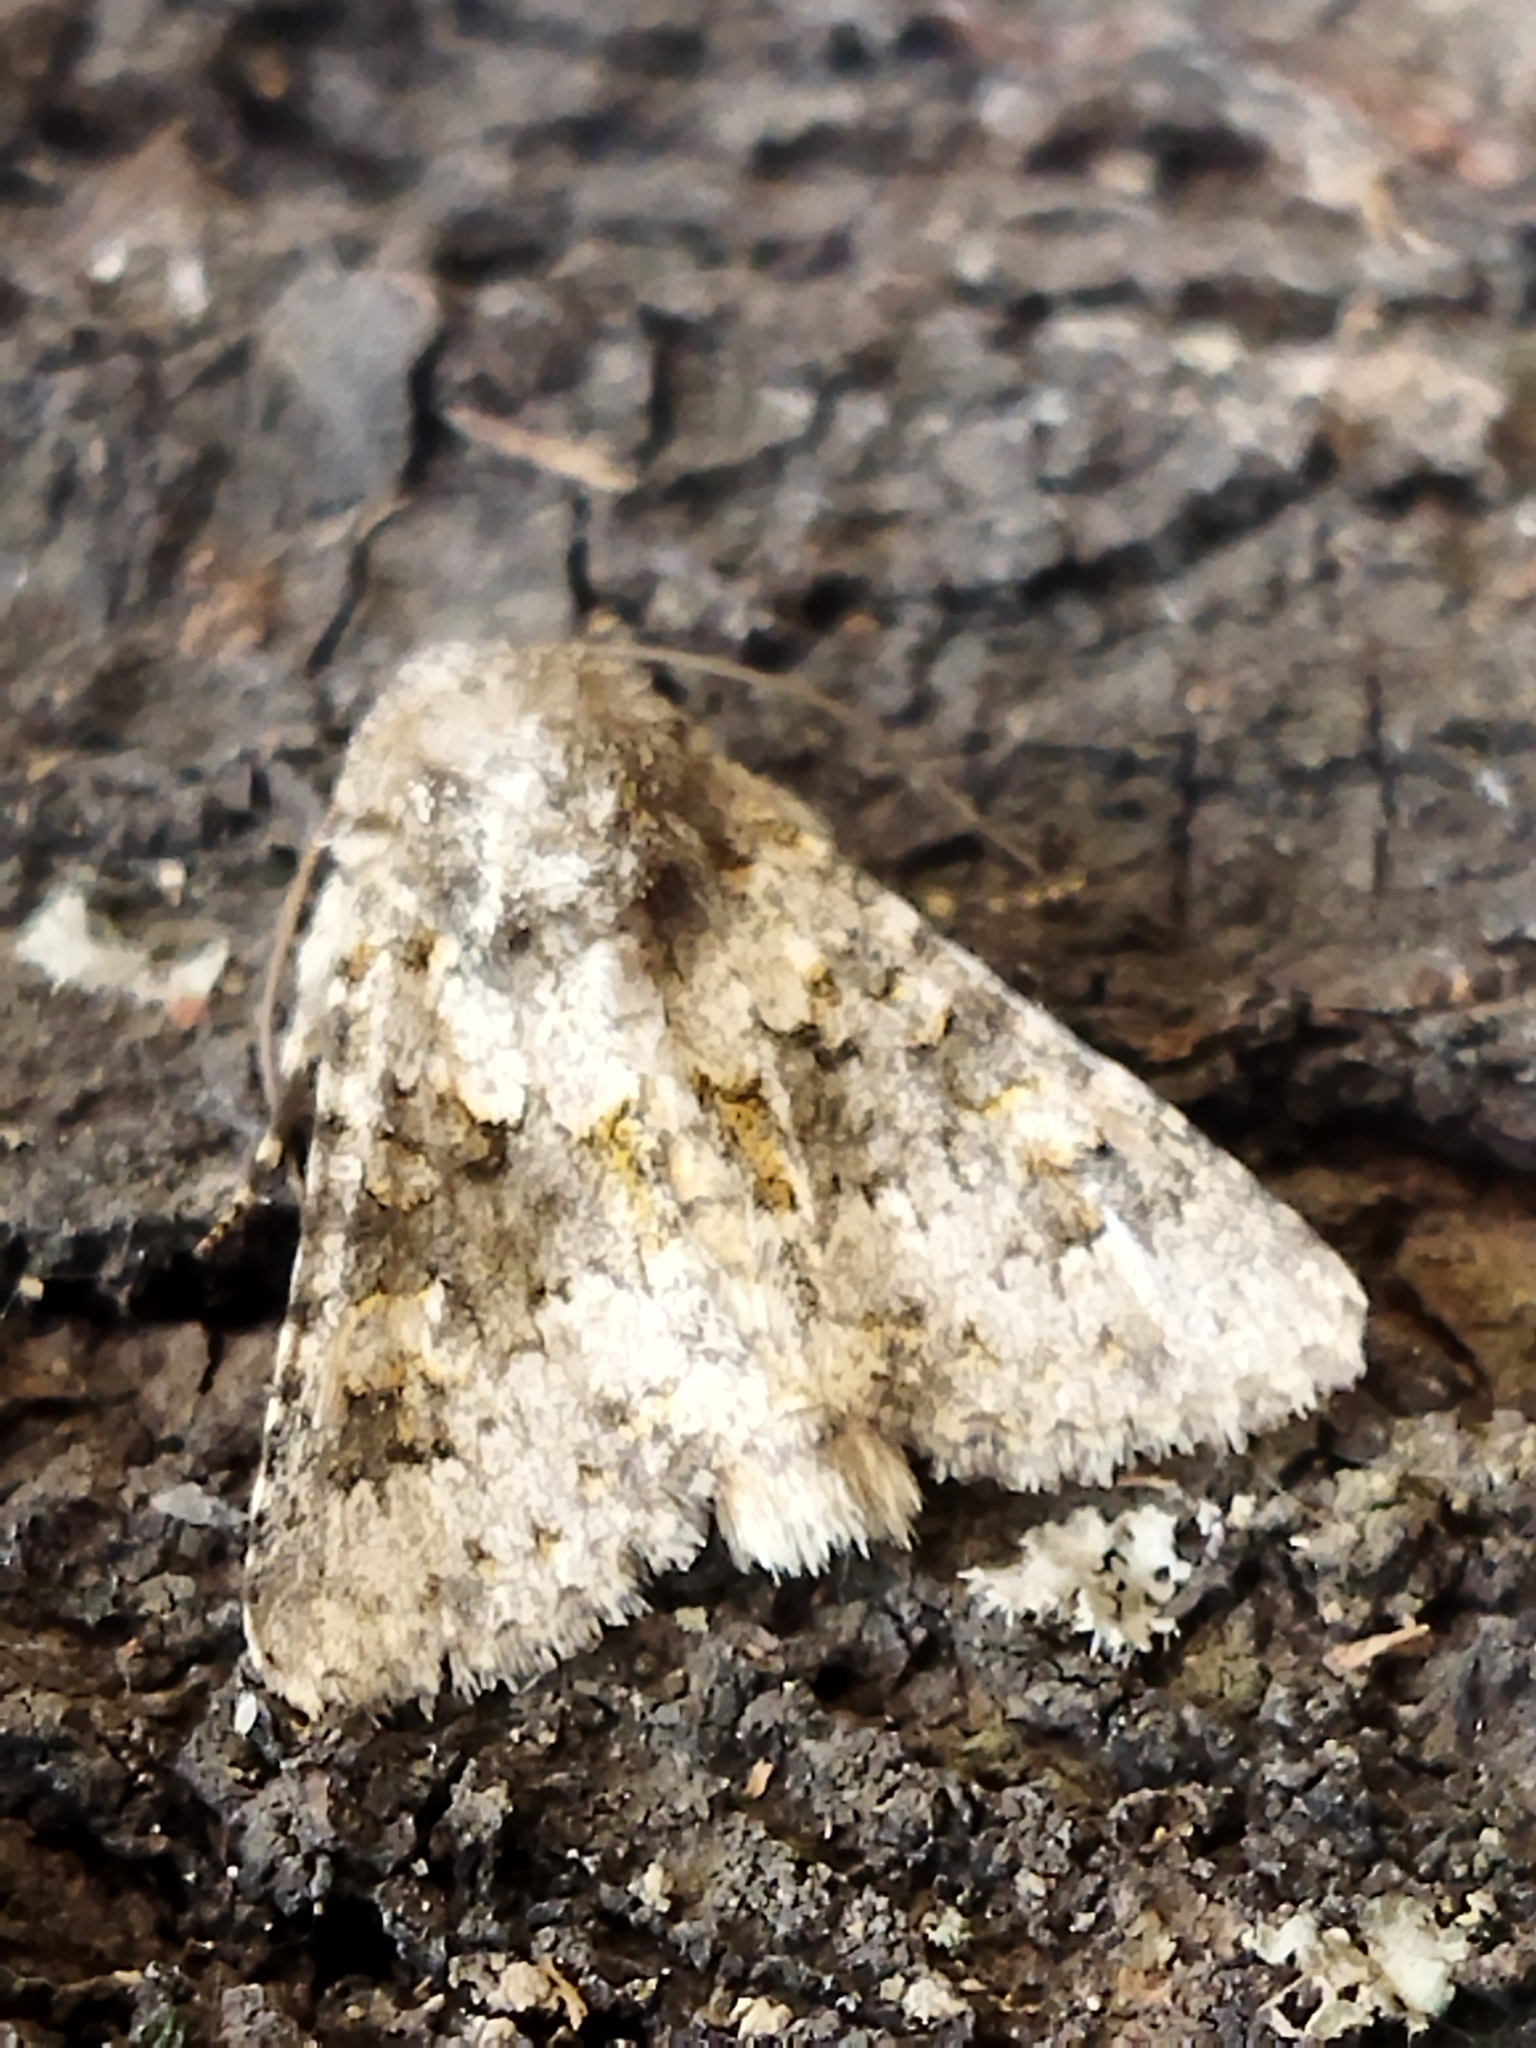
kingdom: Animalia
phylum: Arthropoda
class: Insecta
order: Lepidoptera
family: Noctuidae
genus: Hecatera
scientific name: Hecatera dysodea
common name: Small ranunculus
